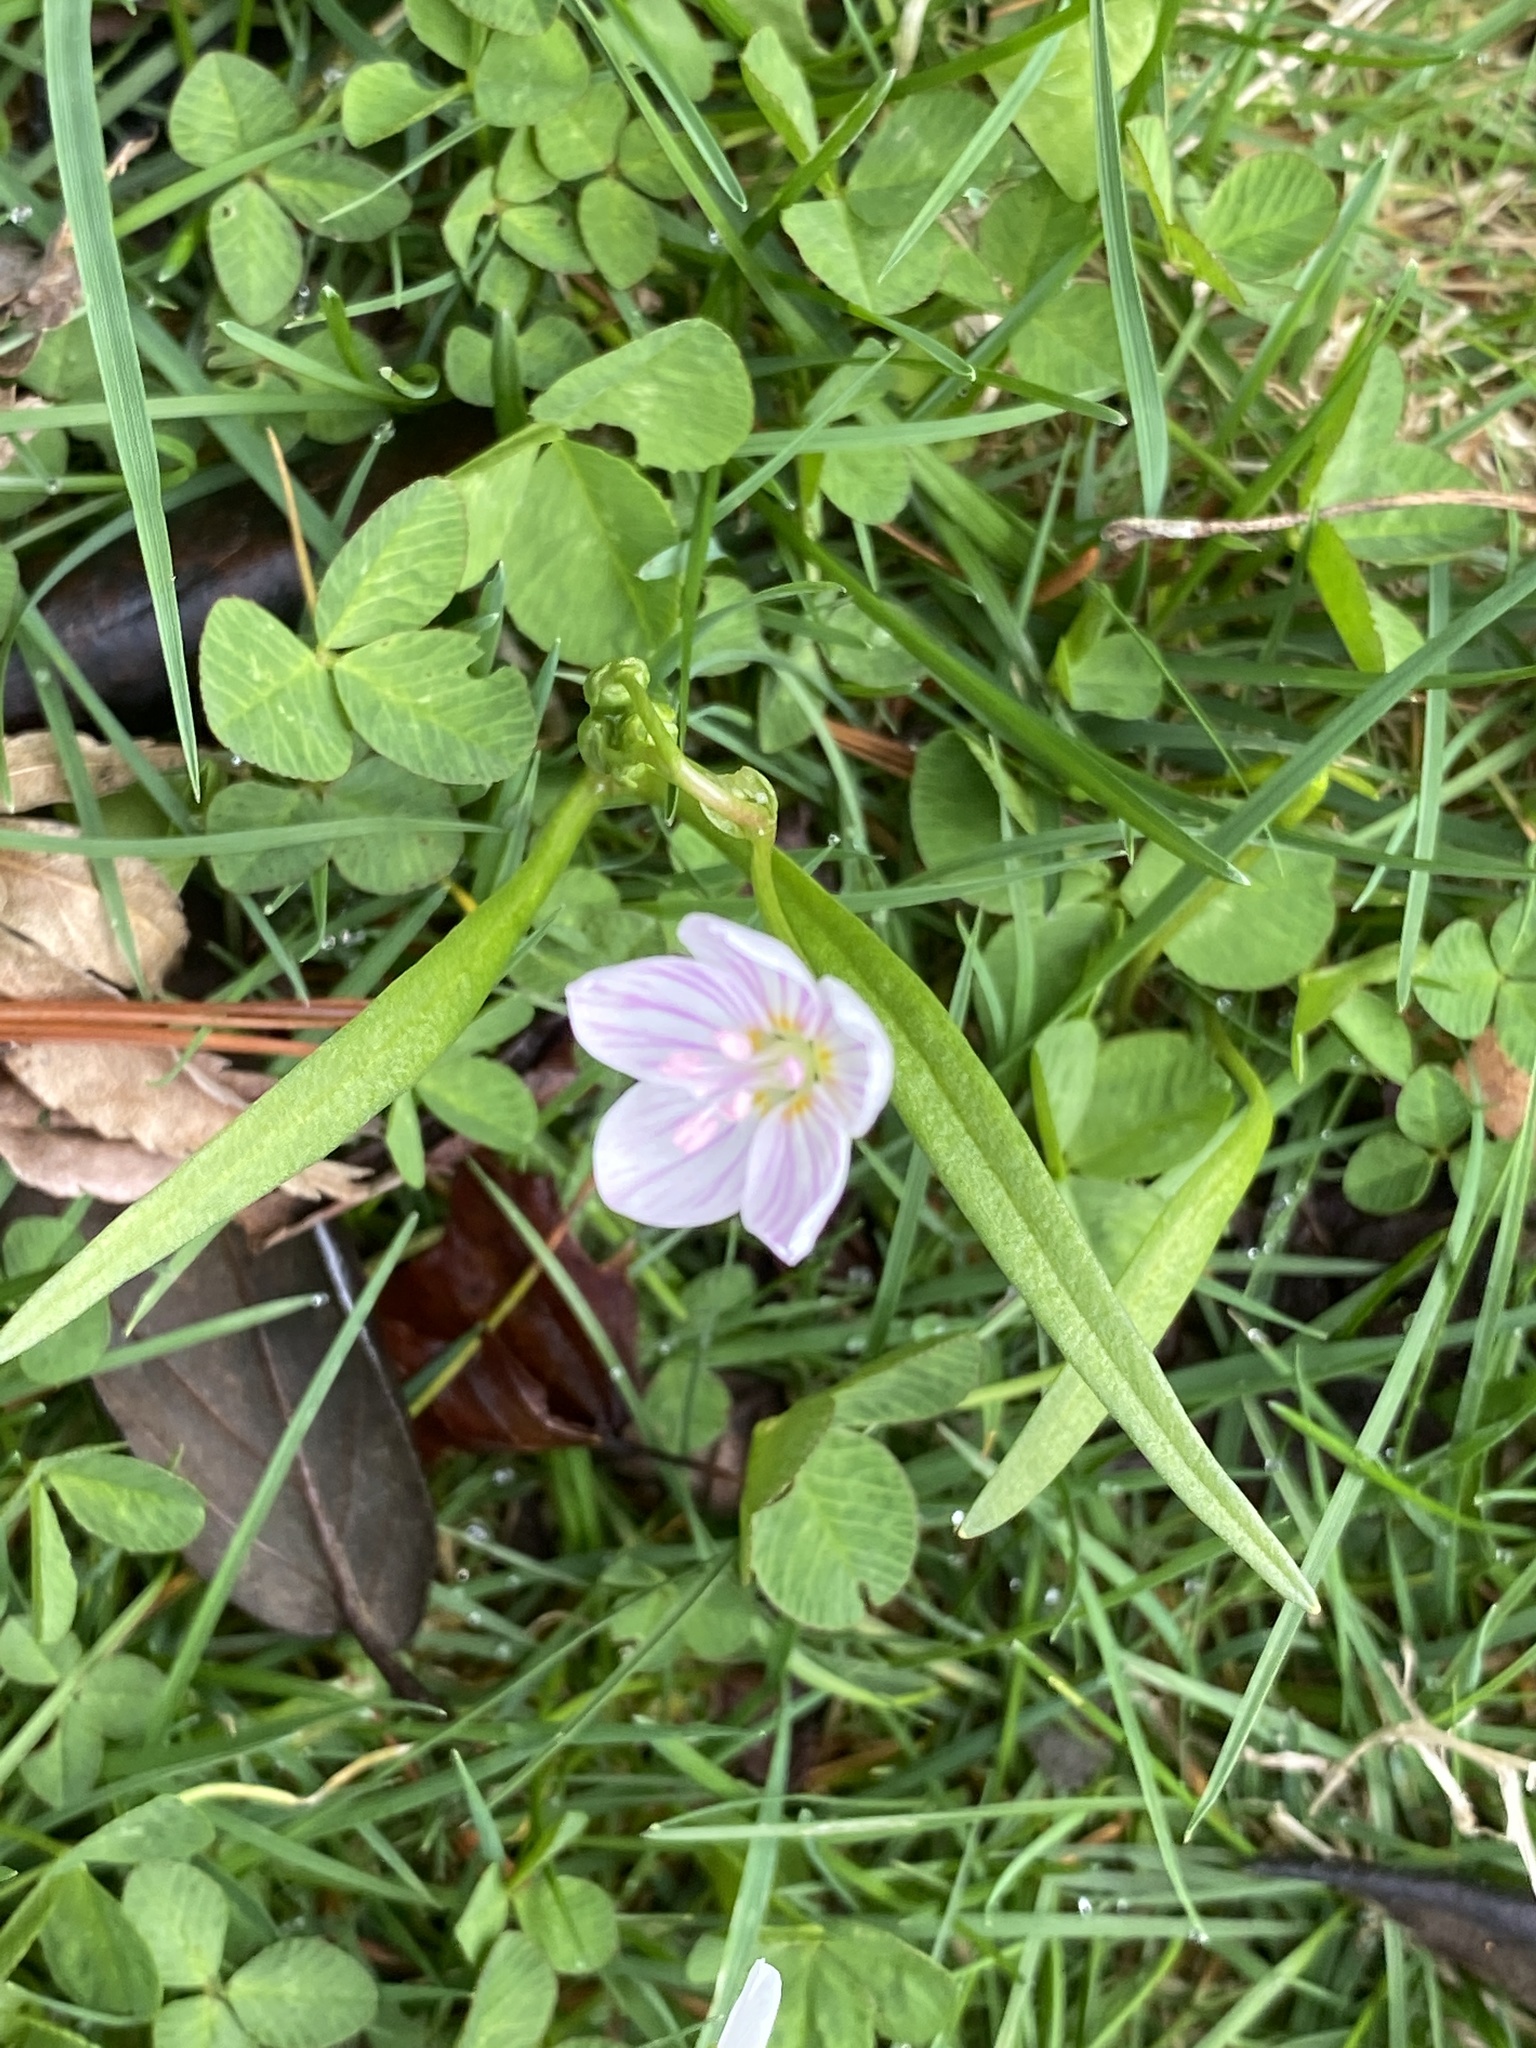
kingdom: Plantae
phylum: Tracheophyta
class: Magnoliopsida
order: Caryophyllales
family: Montiaceae
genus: Claytonia
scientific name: Claytonia virginica
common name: Virginia springbeauty
